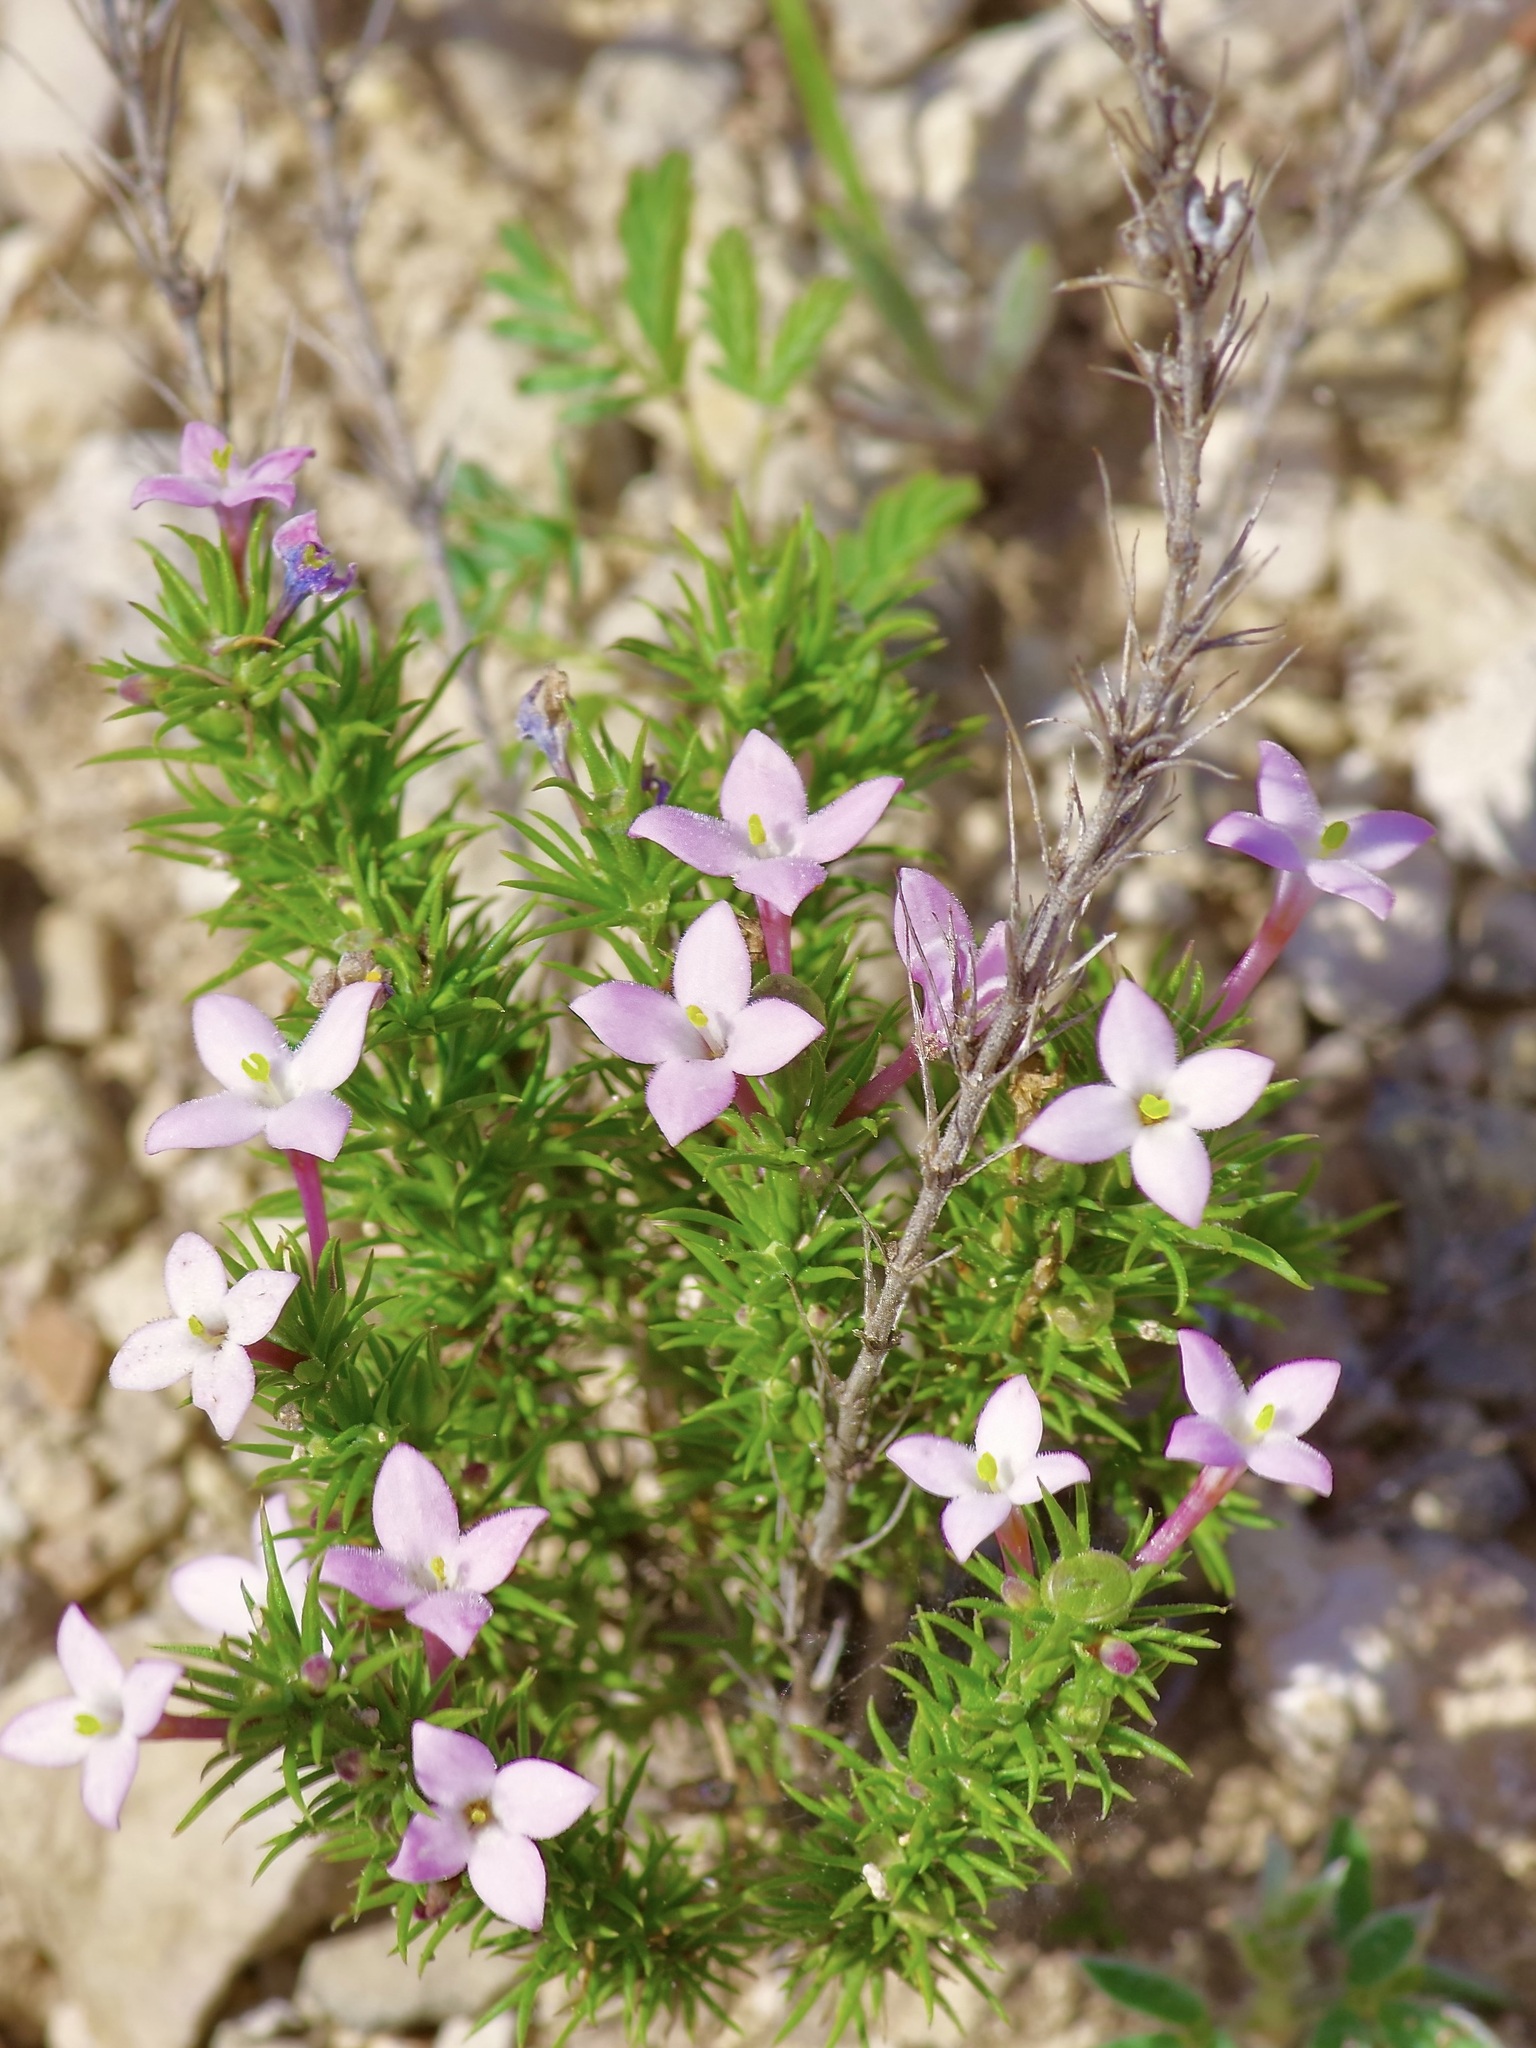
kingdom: Plantae
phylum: Tracheophyta
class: Magnoliopsida
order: Gentianales
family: Rubiaceae
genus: Houstonia
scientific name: Houstonia acerosa
